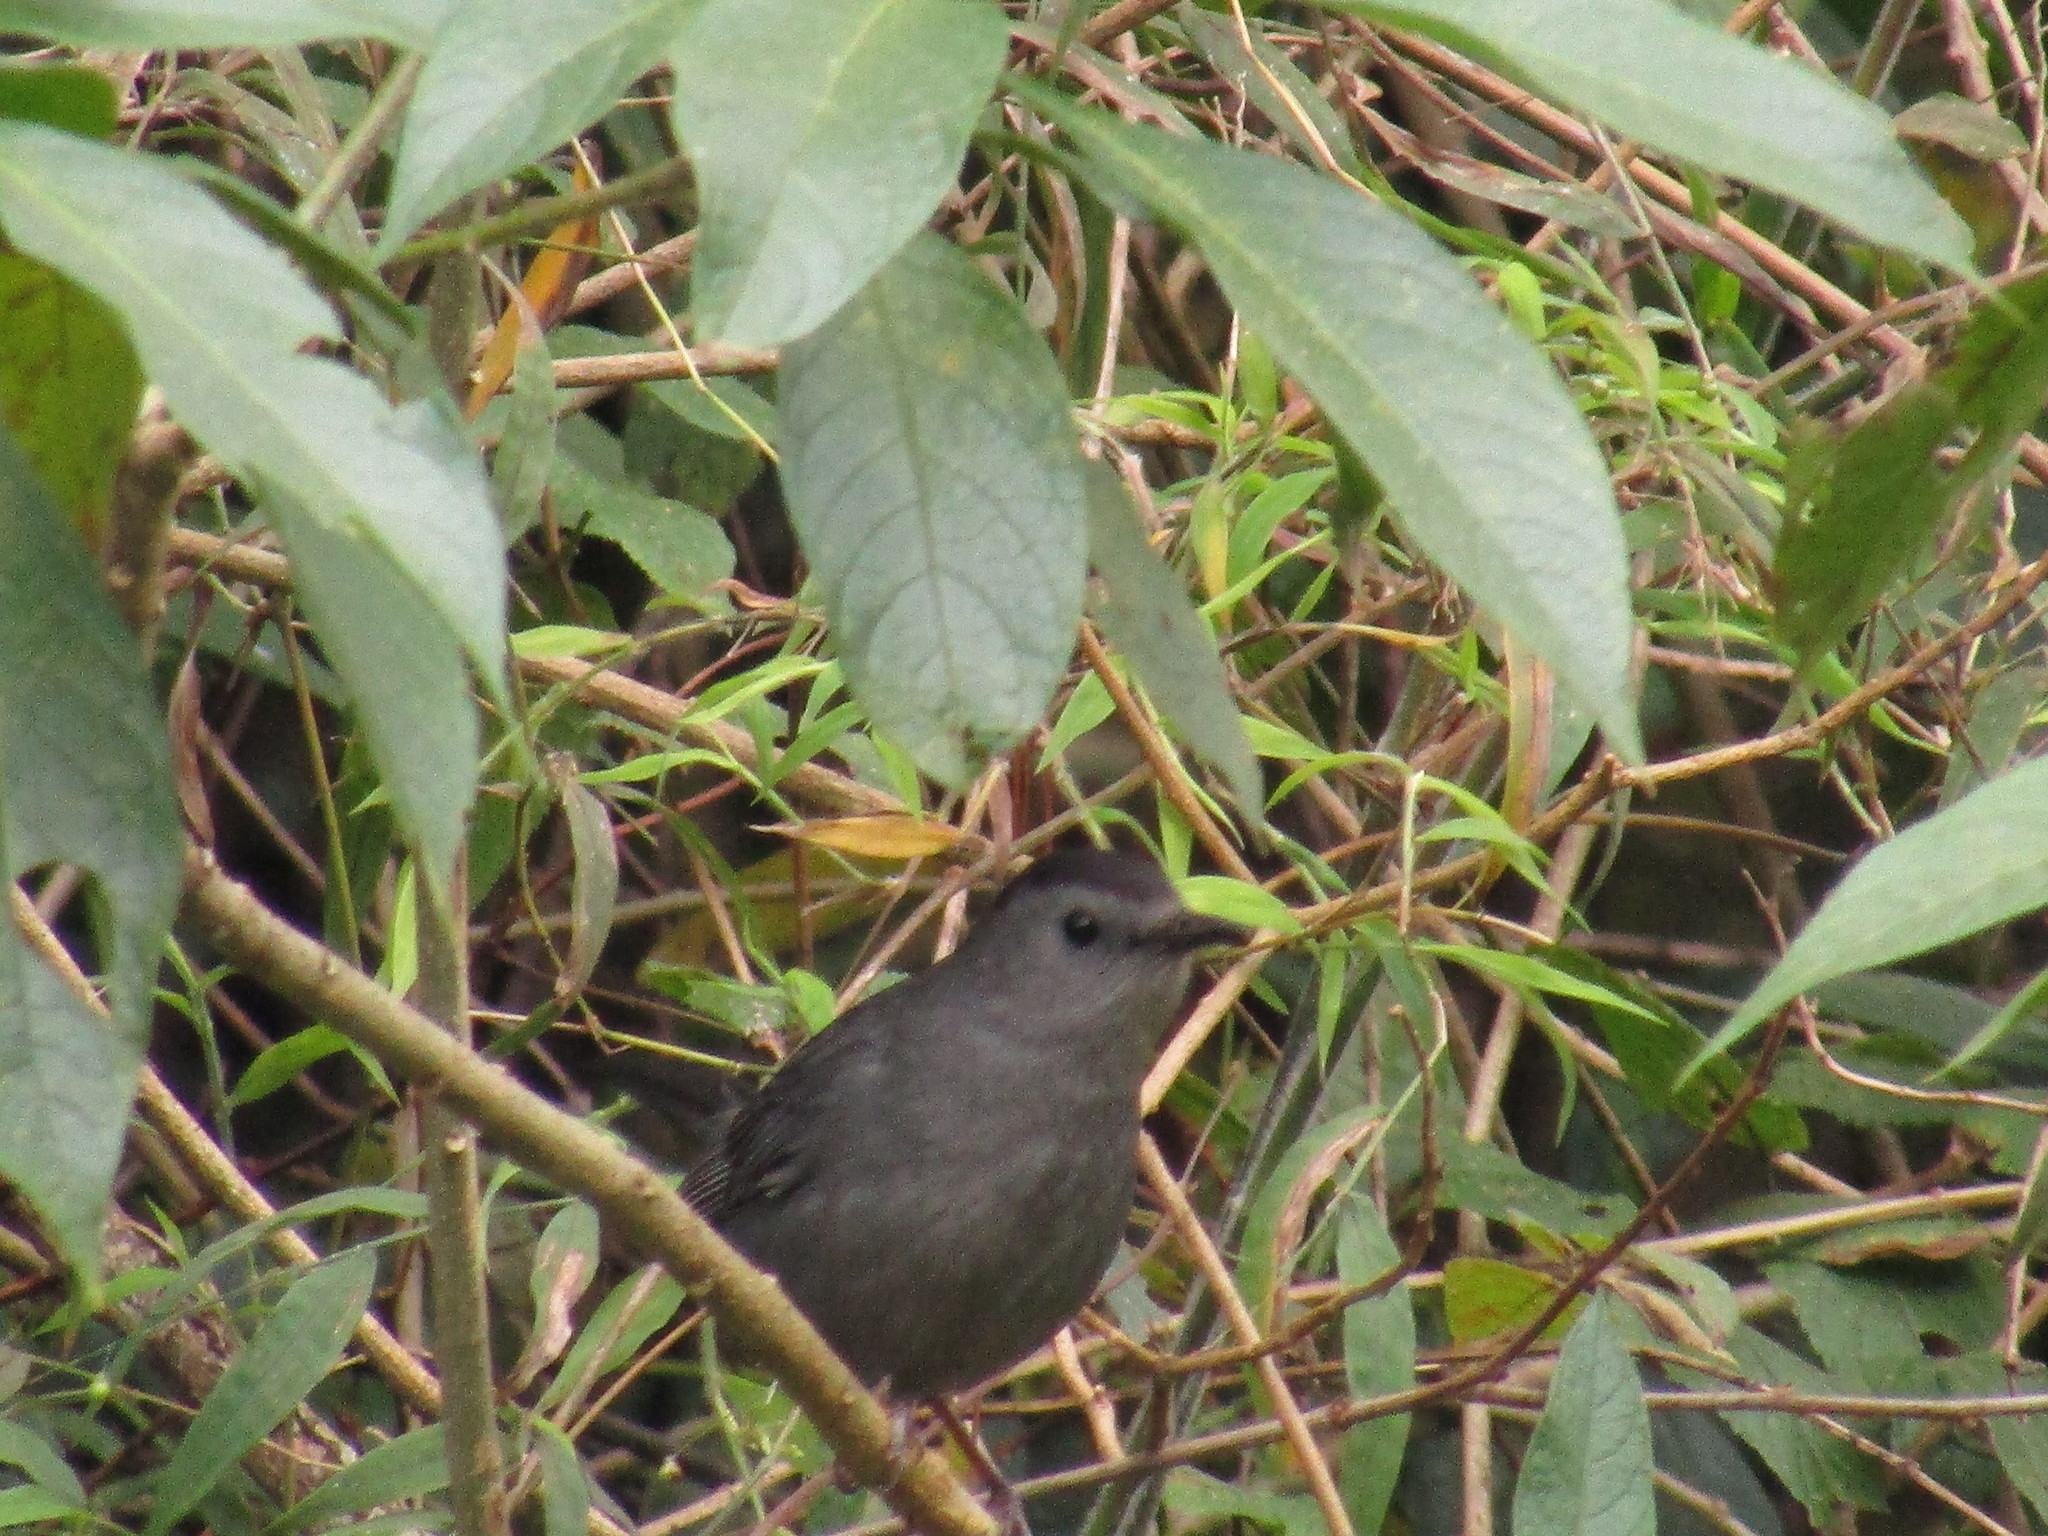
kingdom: Animalia
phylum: Chordata
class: Aves
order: Passeriformes
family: Mimidae
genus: Dumetella
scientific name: Dumetella carolinensis
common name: Gray catbird
